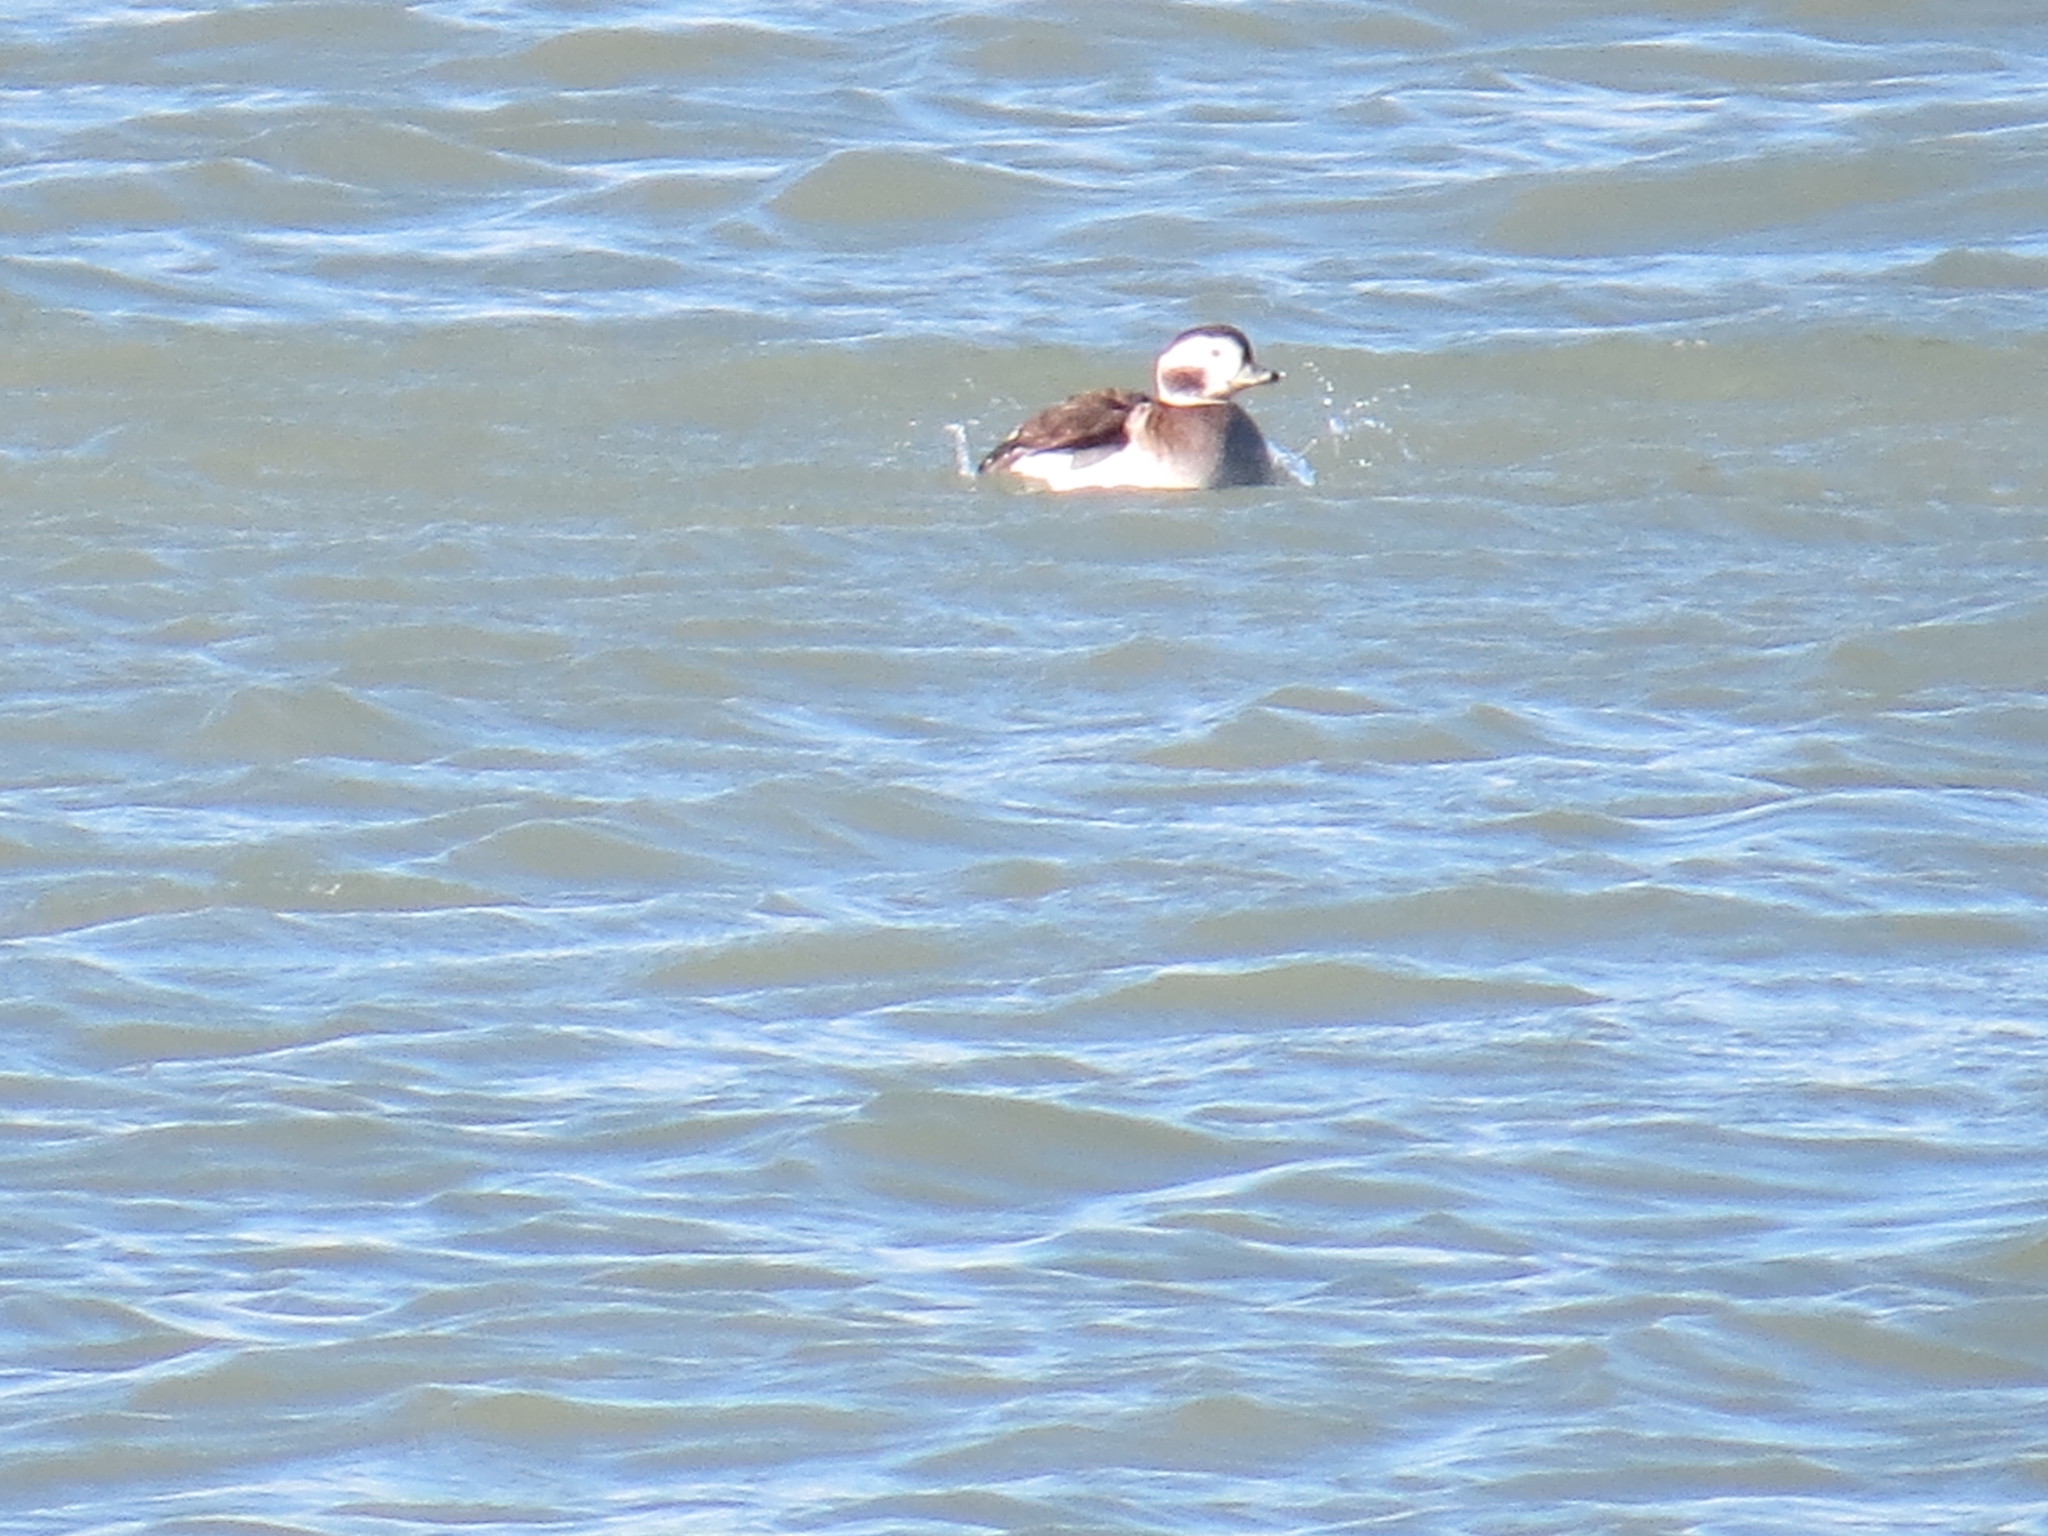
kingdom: Animalia
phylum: Chordata
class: Aves
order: Anseriformes
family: Anatidae
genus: Clangula
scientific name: Clangula hyemalis
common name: Long-tailed duck
